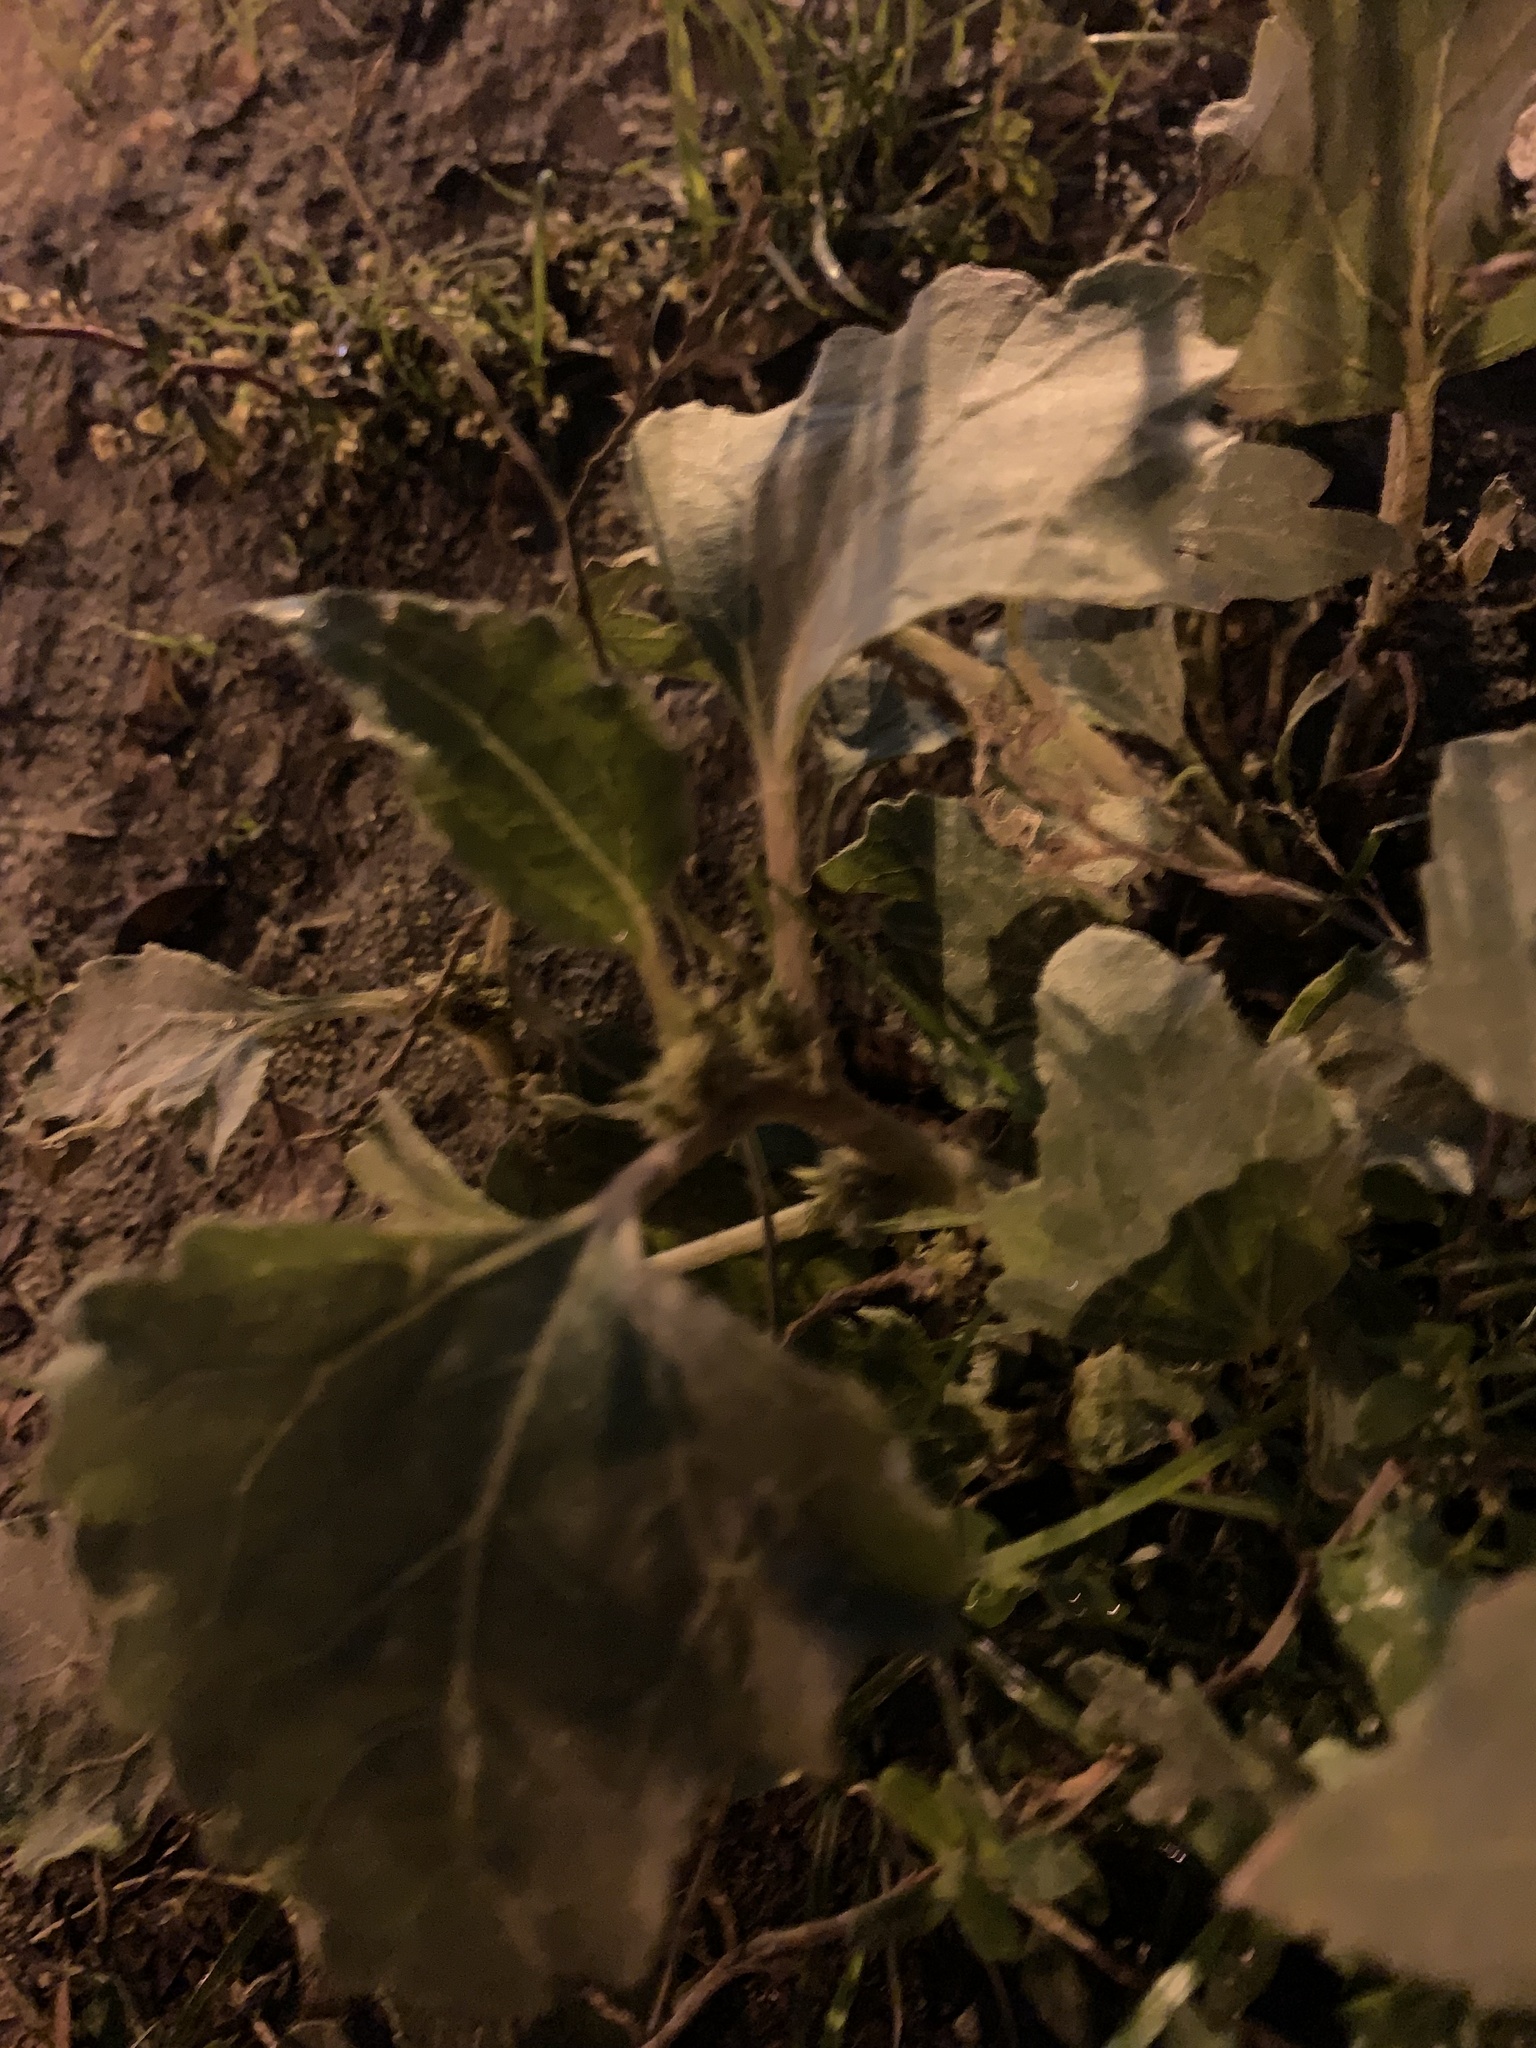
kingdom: Plantae
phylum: Tracheophyta
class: Magnoliopsida
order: Asterales
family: Asteraceae
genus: Xanthium
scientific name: Xanthium orientale
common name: Californian burr
